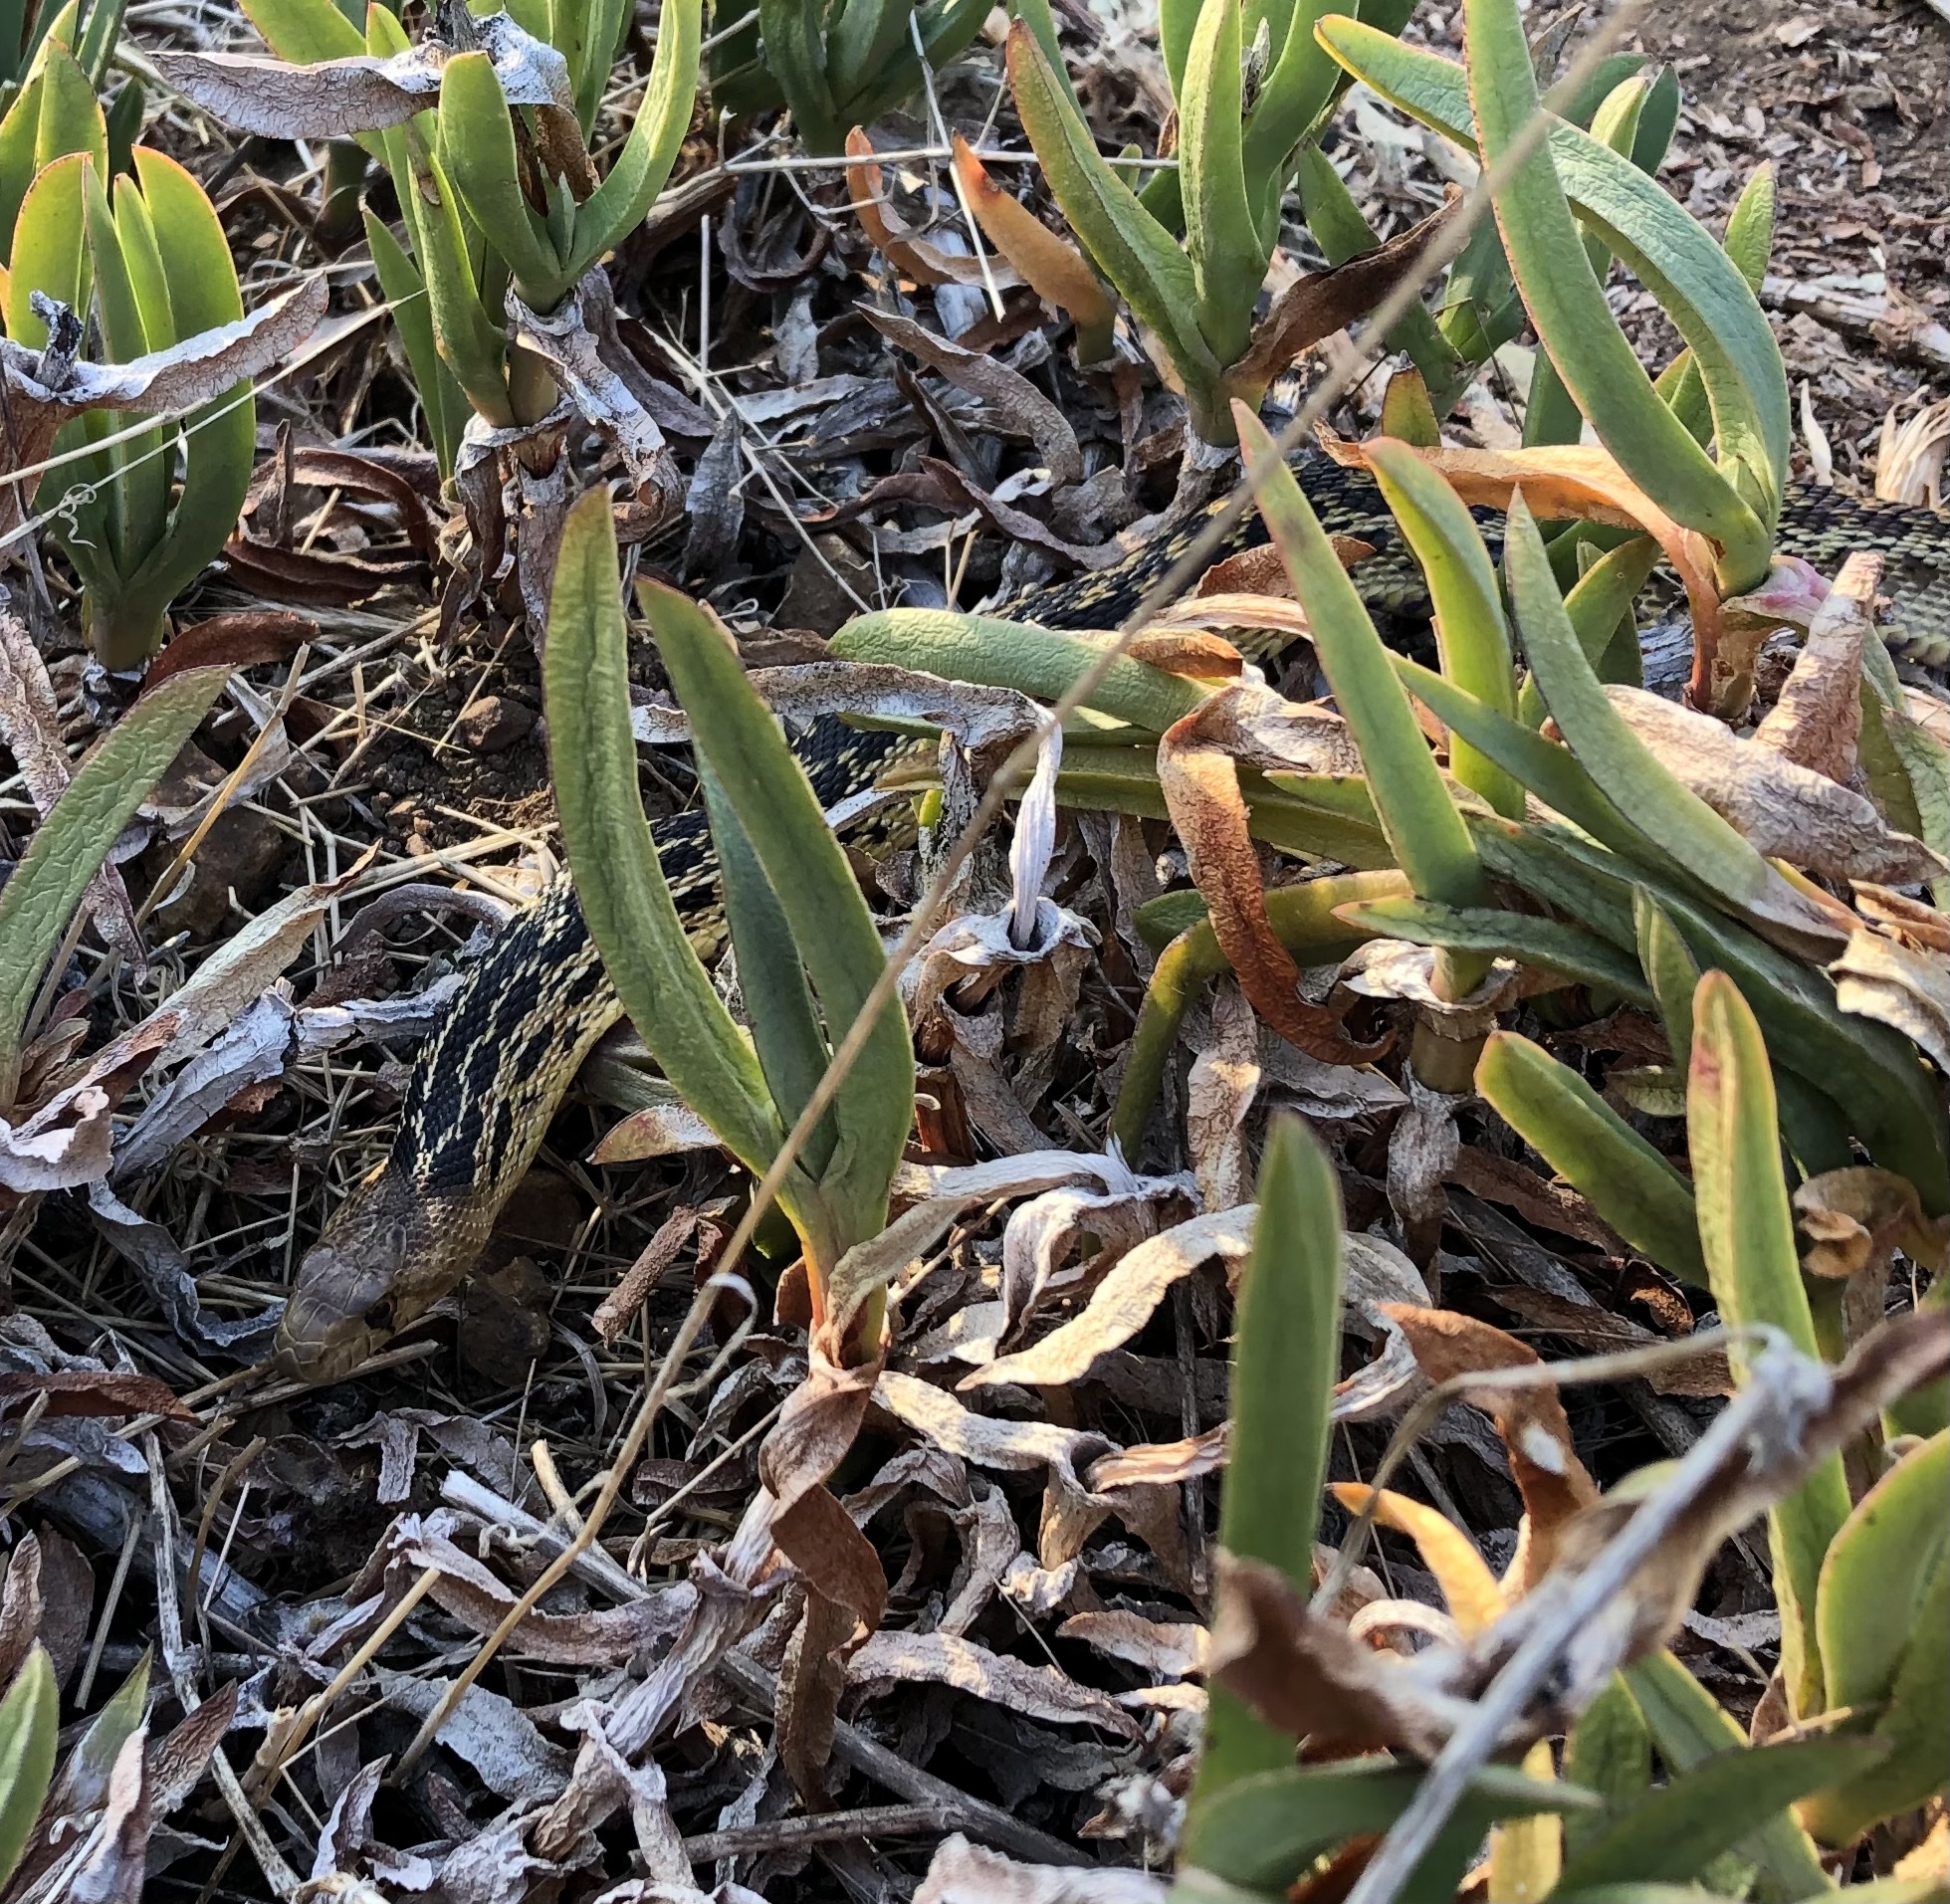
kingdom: Animalia
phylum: Chordata
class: Squamata
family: Colubridae
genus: Pituophis
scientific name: Pituophis catenifer
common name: Gopher snake
